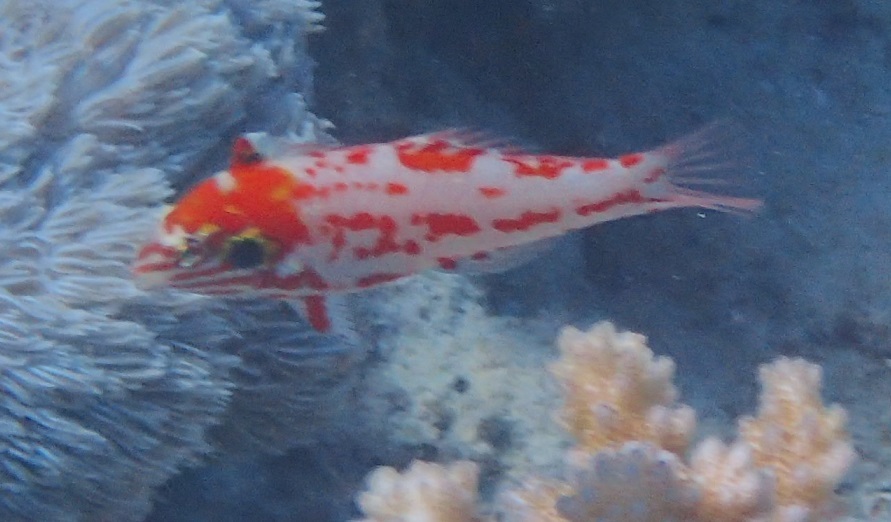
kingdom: Animalia
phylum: Chordata
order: Perciformes
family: Labridae
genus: Macropharyngodon
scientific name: Macropharyngodon choati
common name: Choat's wrasse
